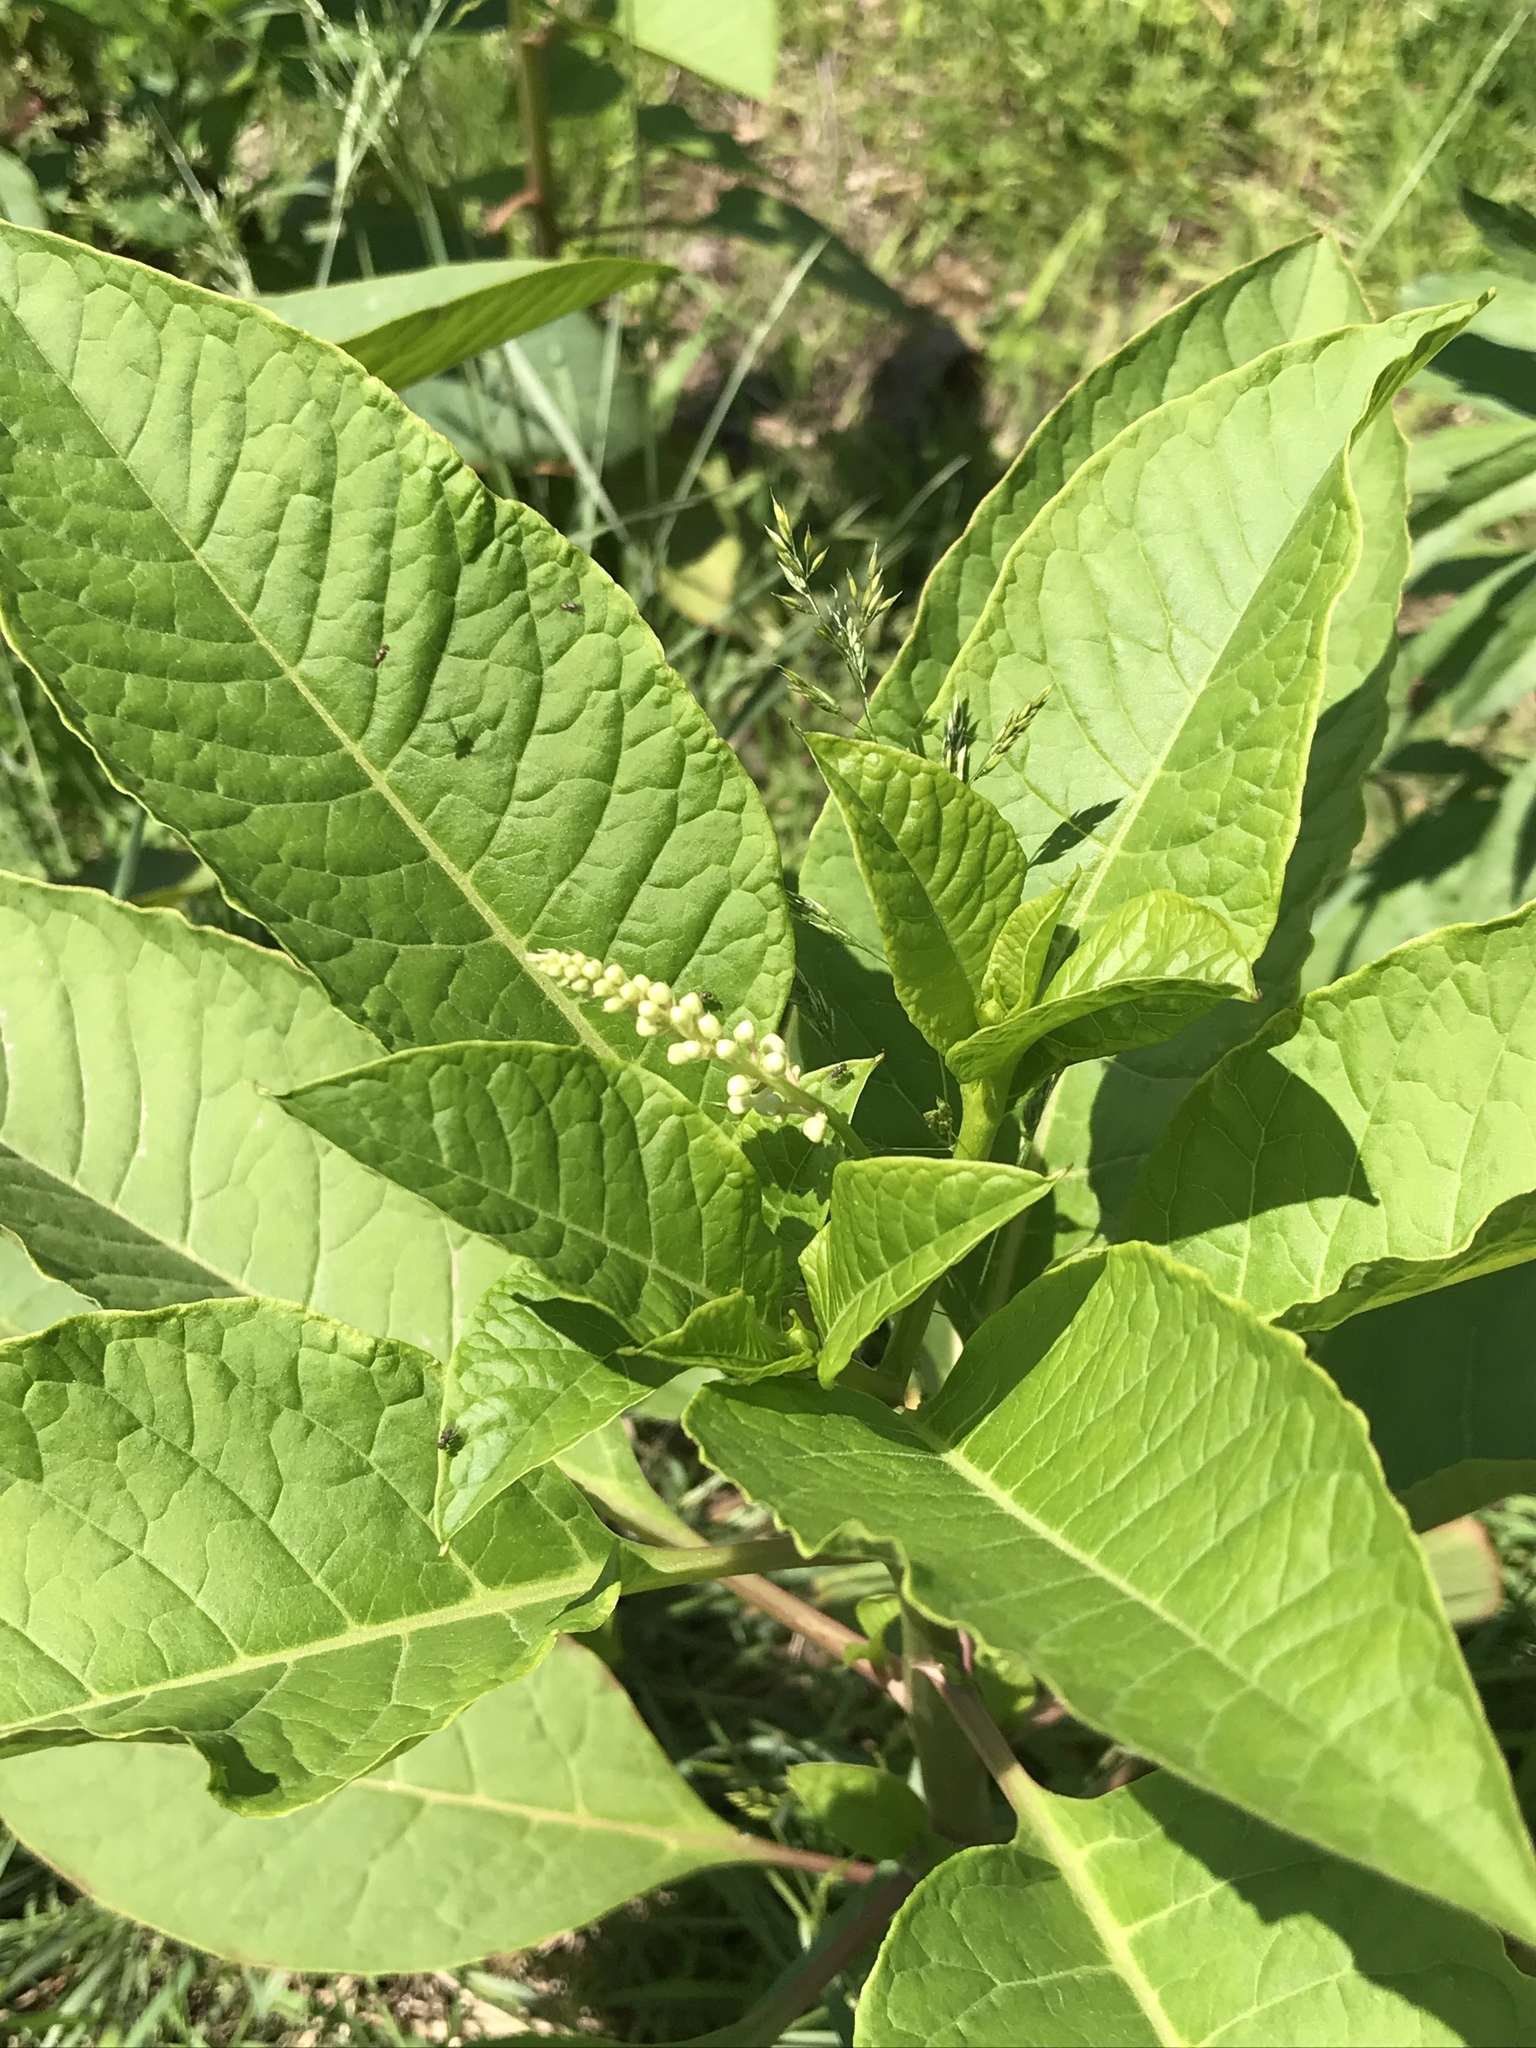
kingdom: Plantae
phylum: Tracheophyta
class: Magnoliopsida
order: Caryophyllales
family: Phytolaccaceae
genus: Phytolacca
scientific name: Phytolacca americana
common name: American pokeweed
